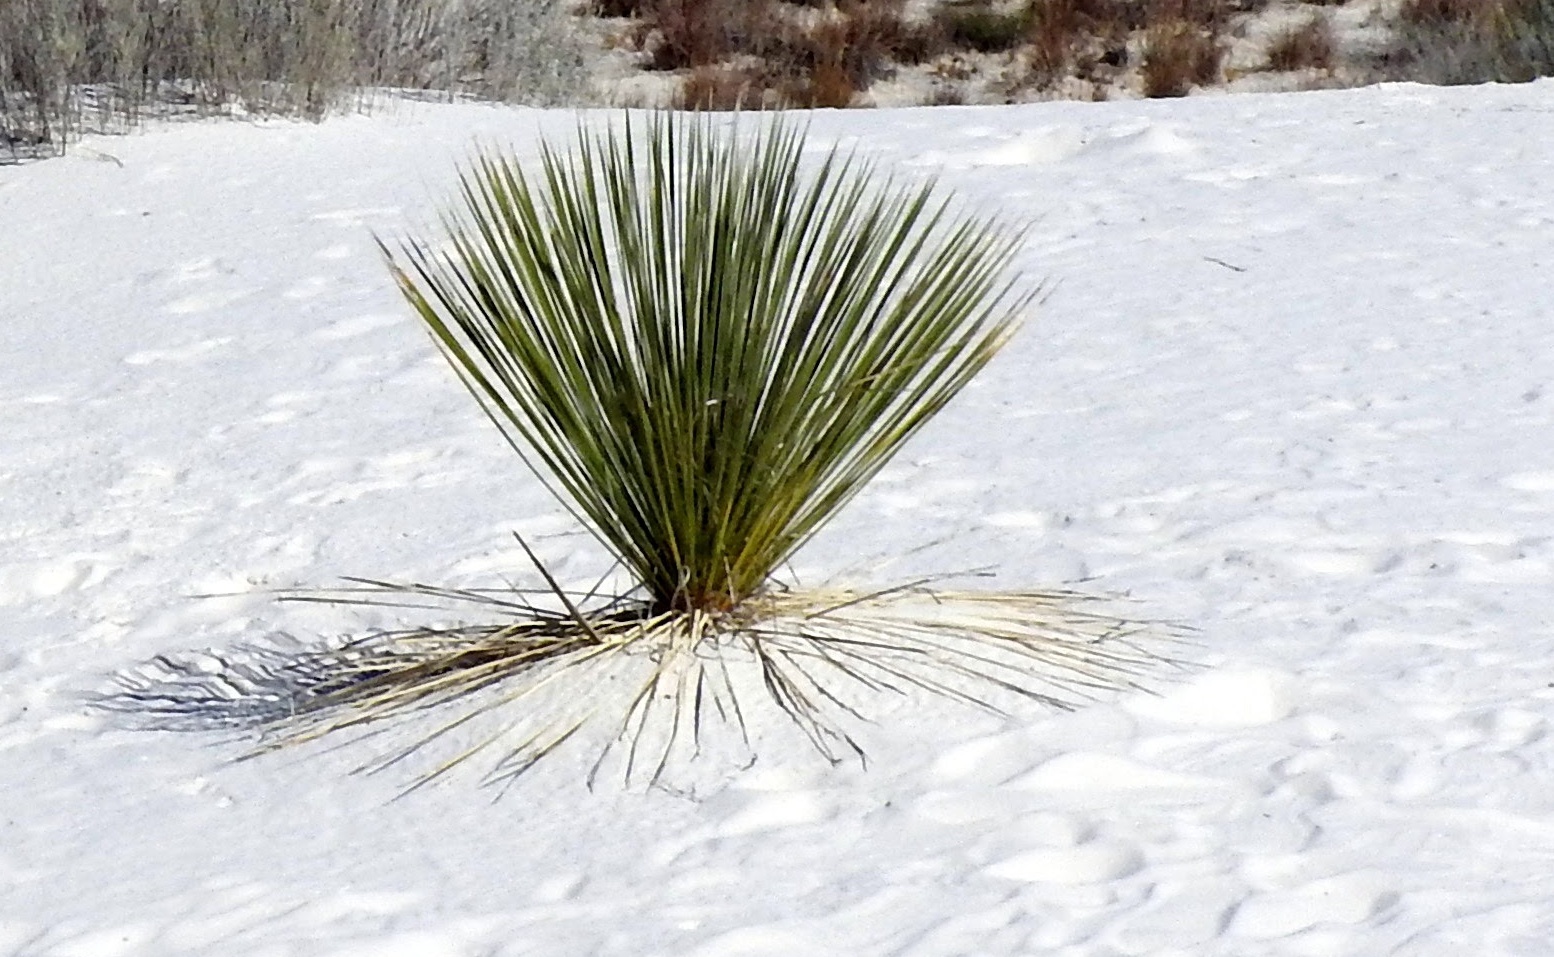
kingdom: Plantae
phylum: Tracheophyta
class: Liliopsida
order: Asparagales
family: Asparagaceae
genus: Yucca
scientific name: Yucca elata
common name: Palmella
